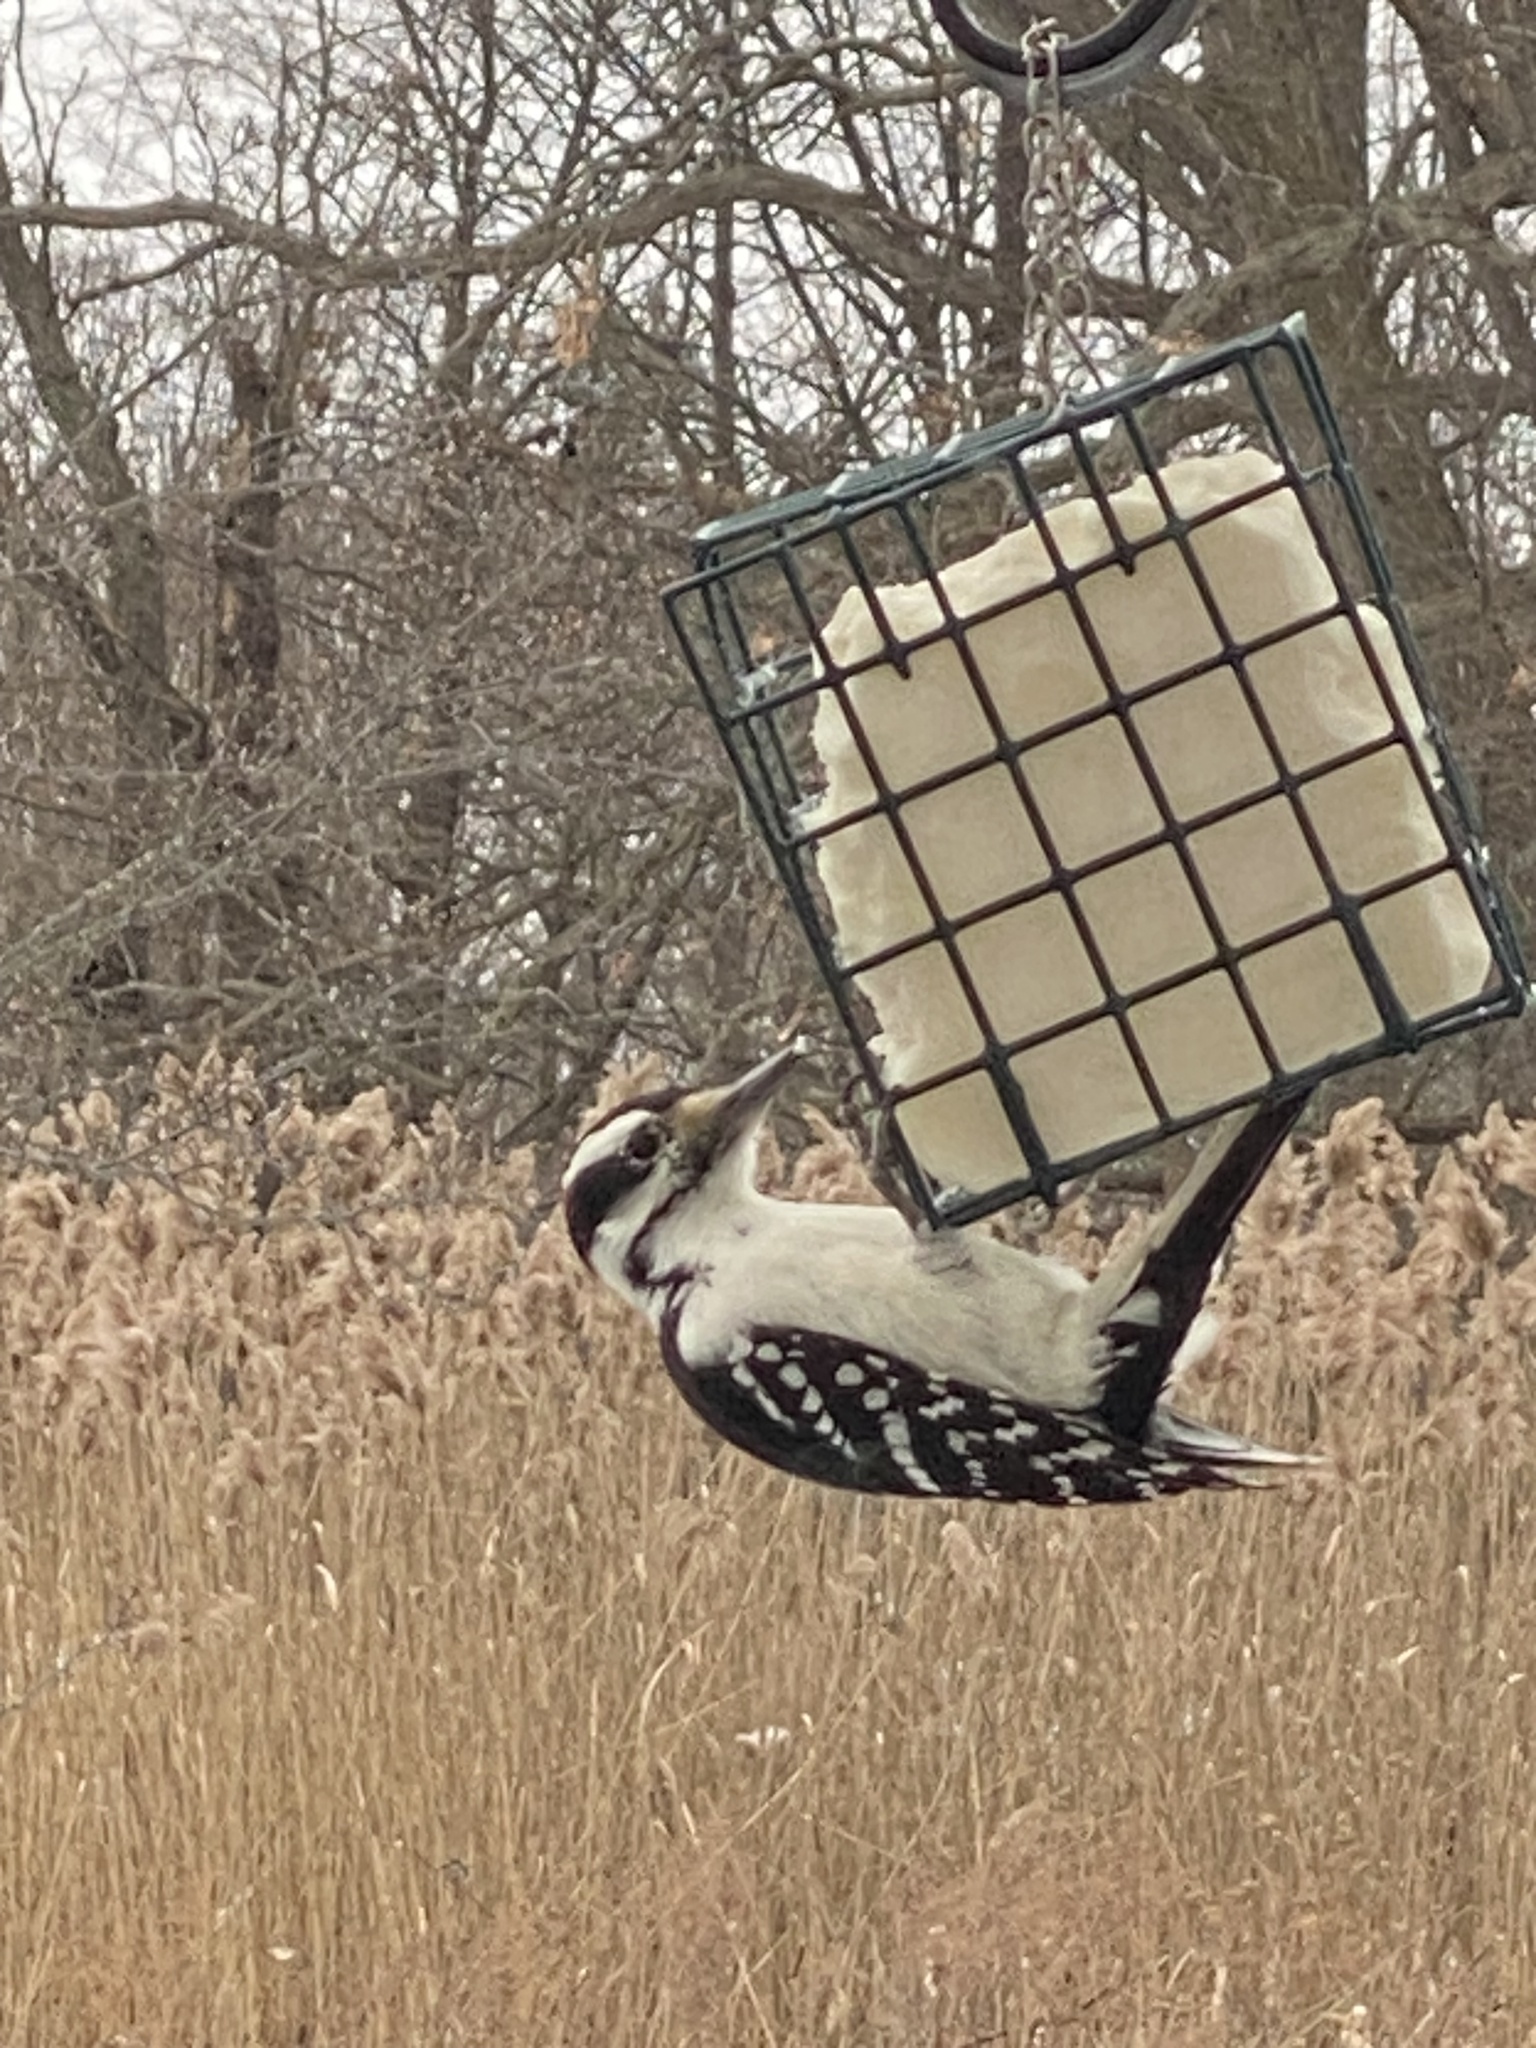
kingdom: Animalia
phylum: Chordata
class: Aves
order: Piciformes
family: Picidae
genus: Leuconotopicus
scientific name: Leuconotopicus villosus
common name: Hairy woodpecker
